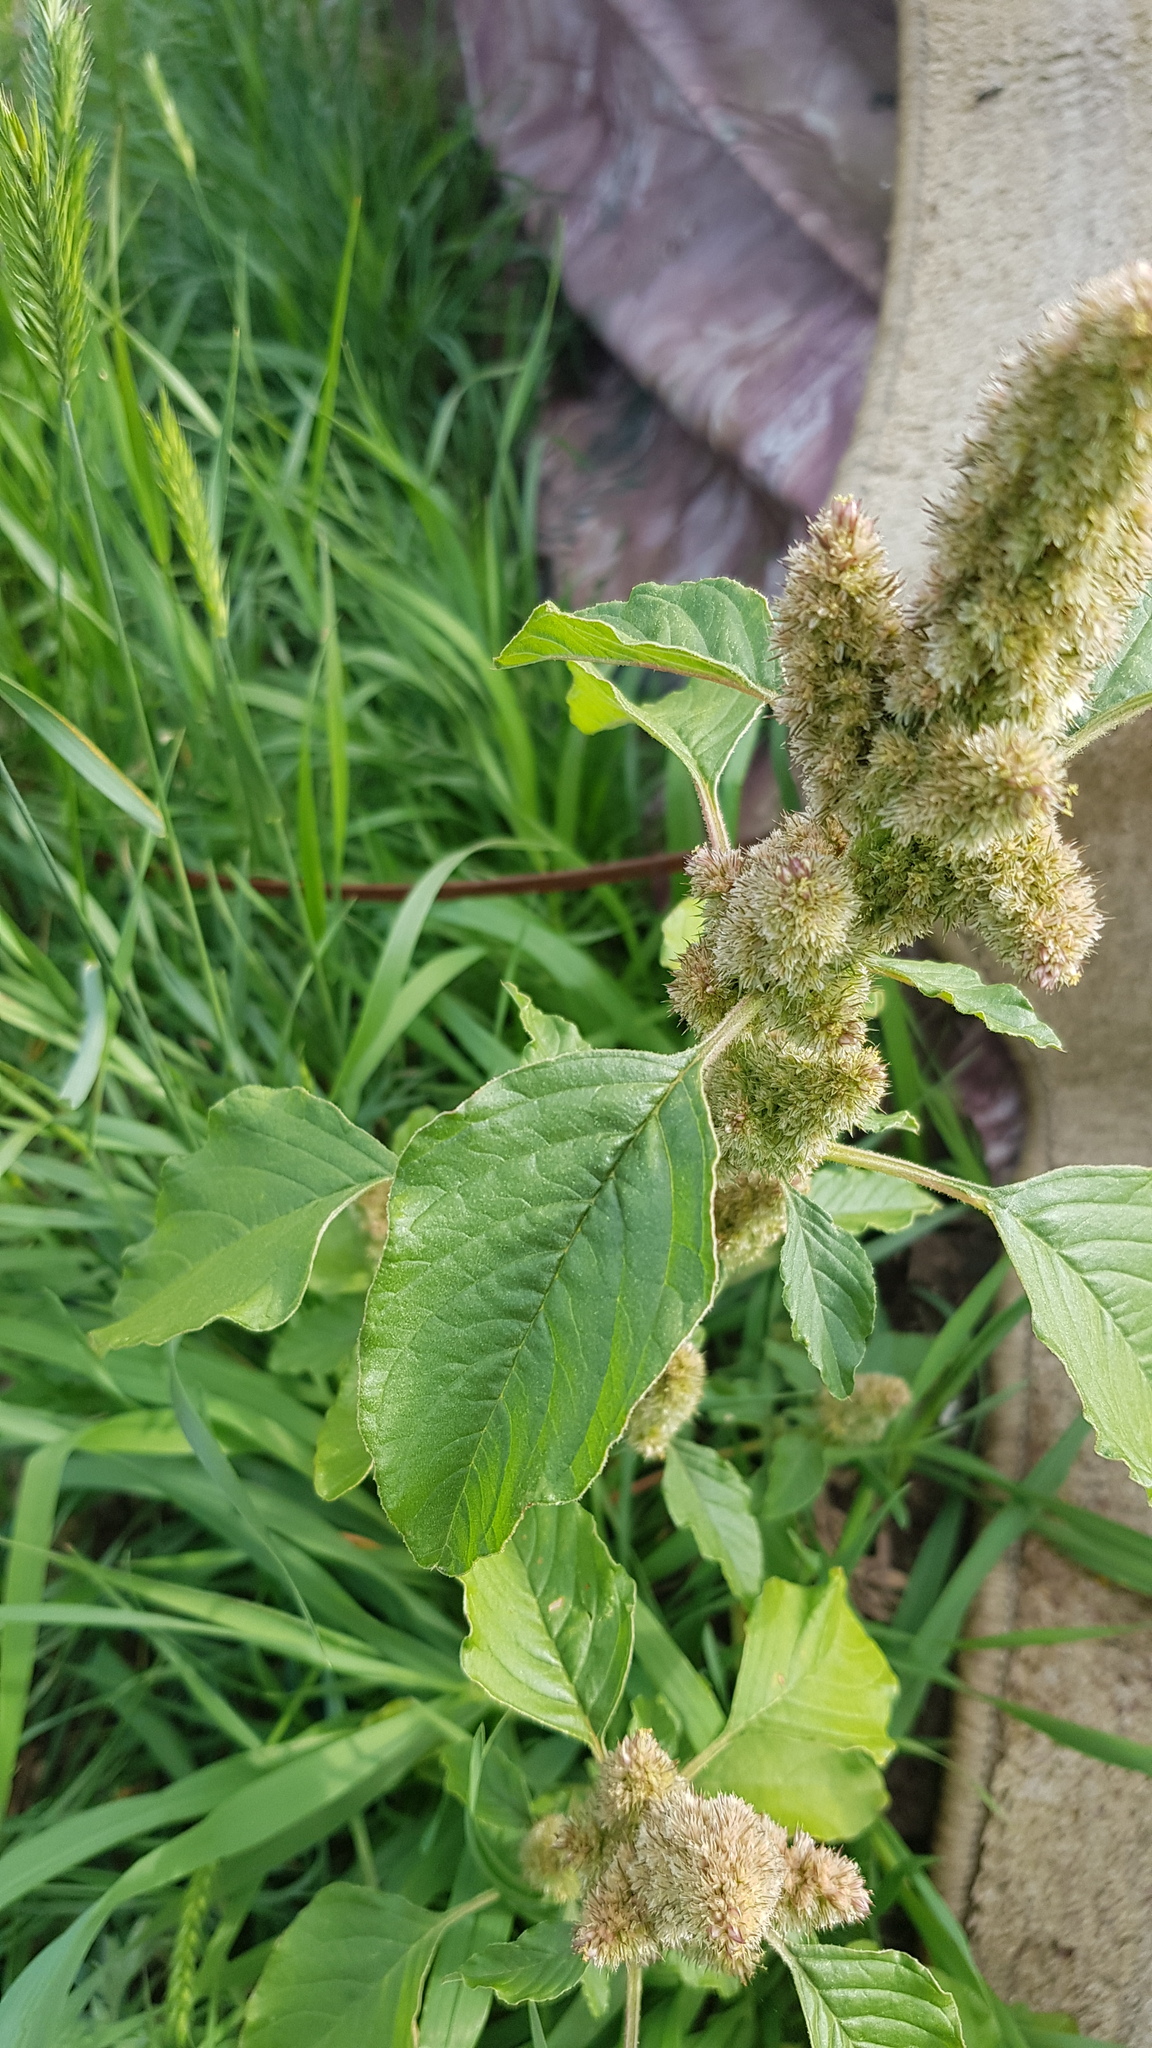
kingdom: Plantae
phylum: Tracheophyta
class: Magnoliopsida
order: Caryophyllales
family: Amaranthaceae
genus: Amaranthus
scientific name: Amaranthus retroflexus
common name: Redroot amaranth
